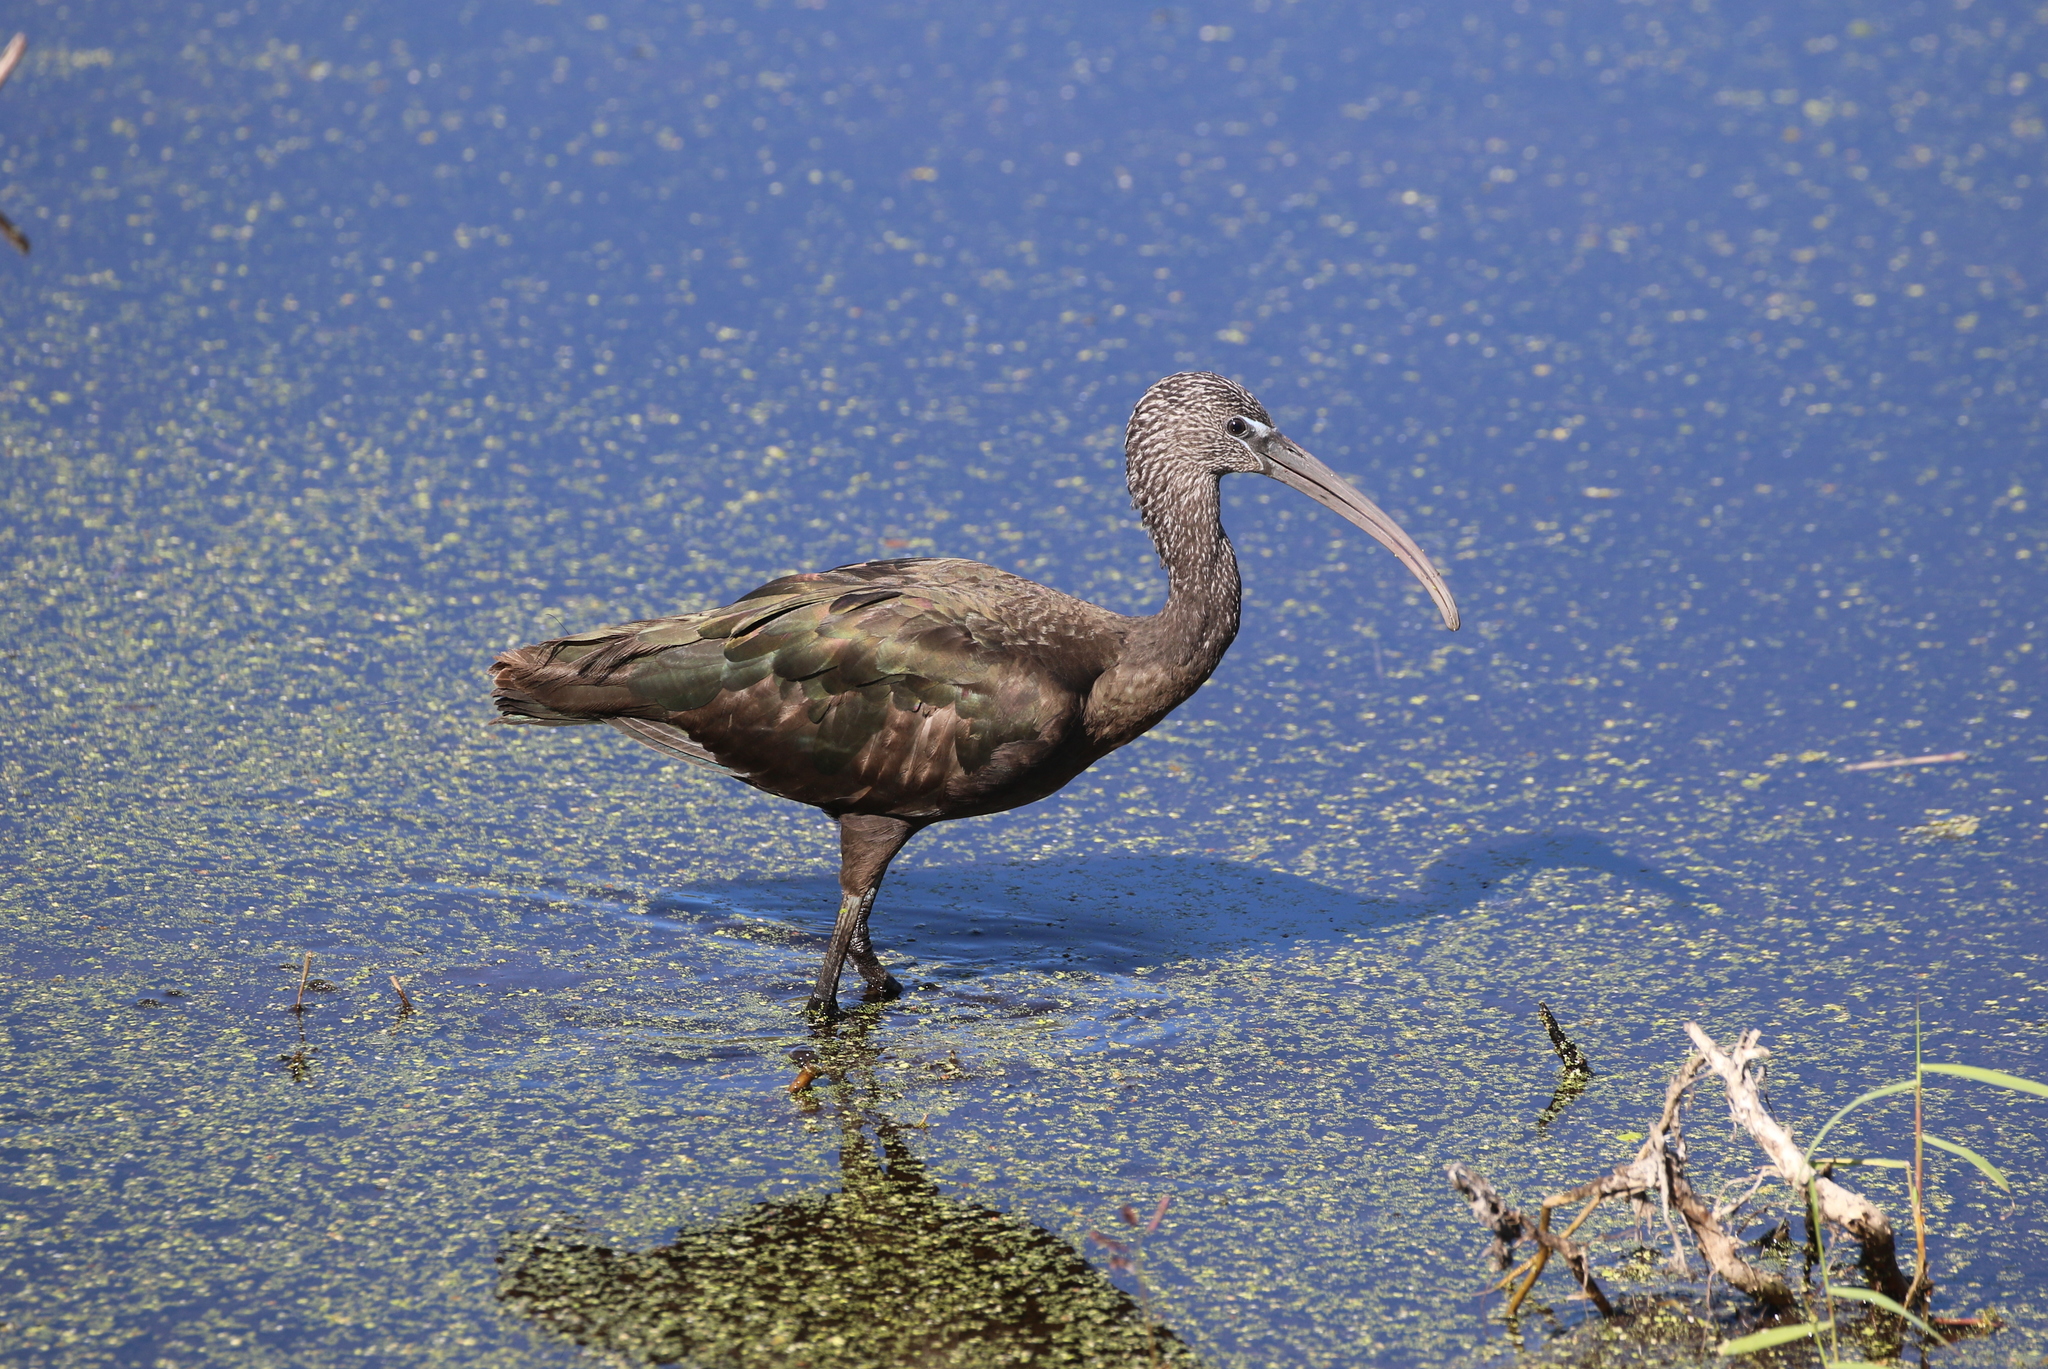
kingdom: Animalia
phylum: Chordata
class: Aves
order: Pelecaniformes
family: Threskiornithidae
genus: Plegadis
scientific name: Plegadis falcinellus
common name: Glossy ibis
